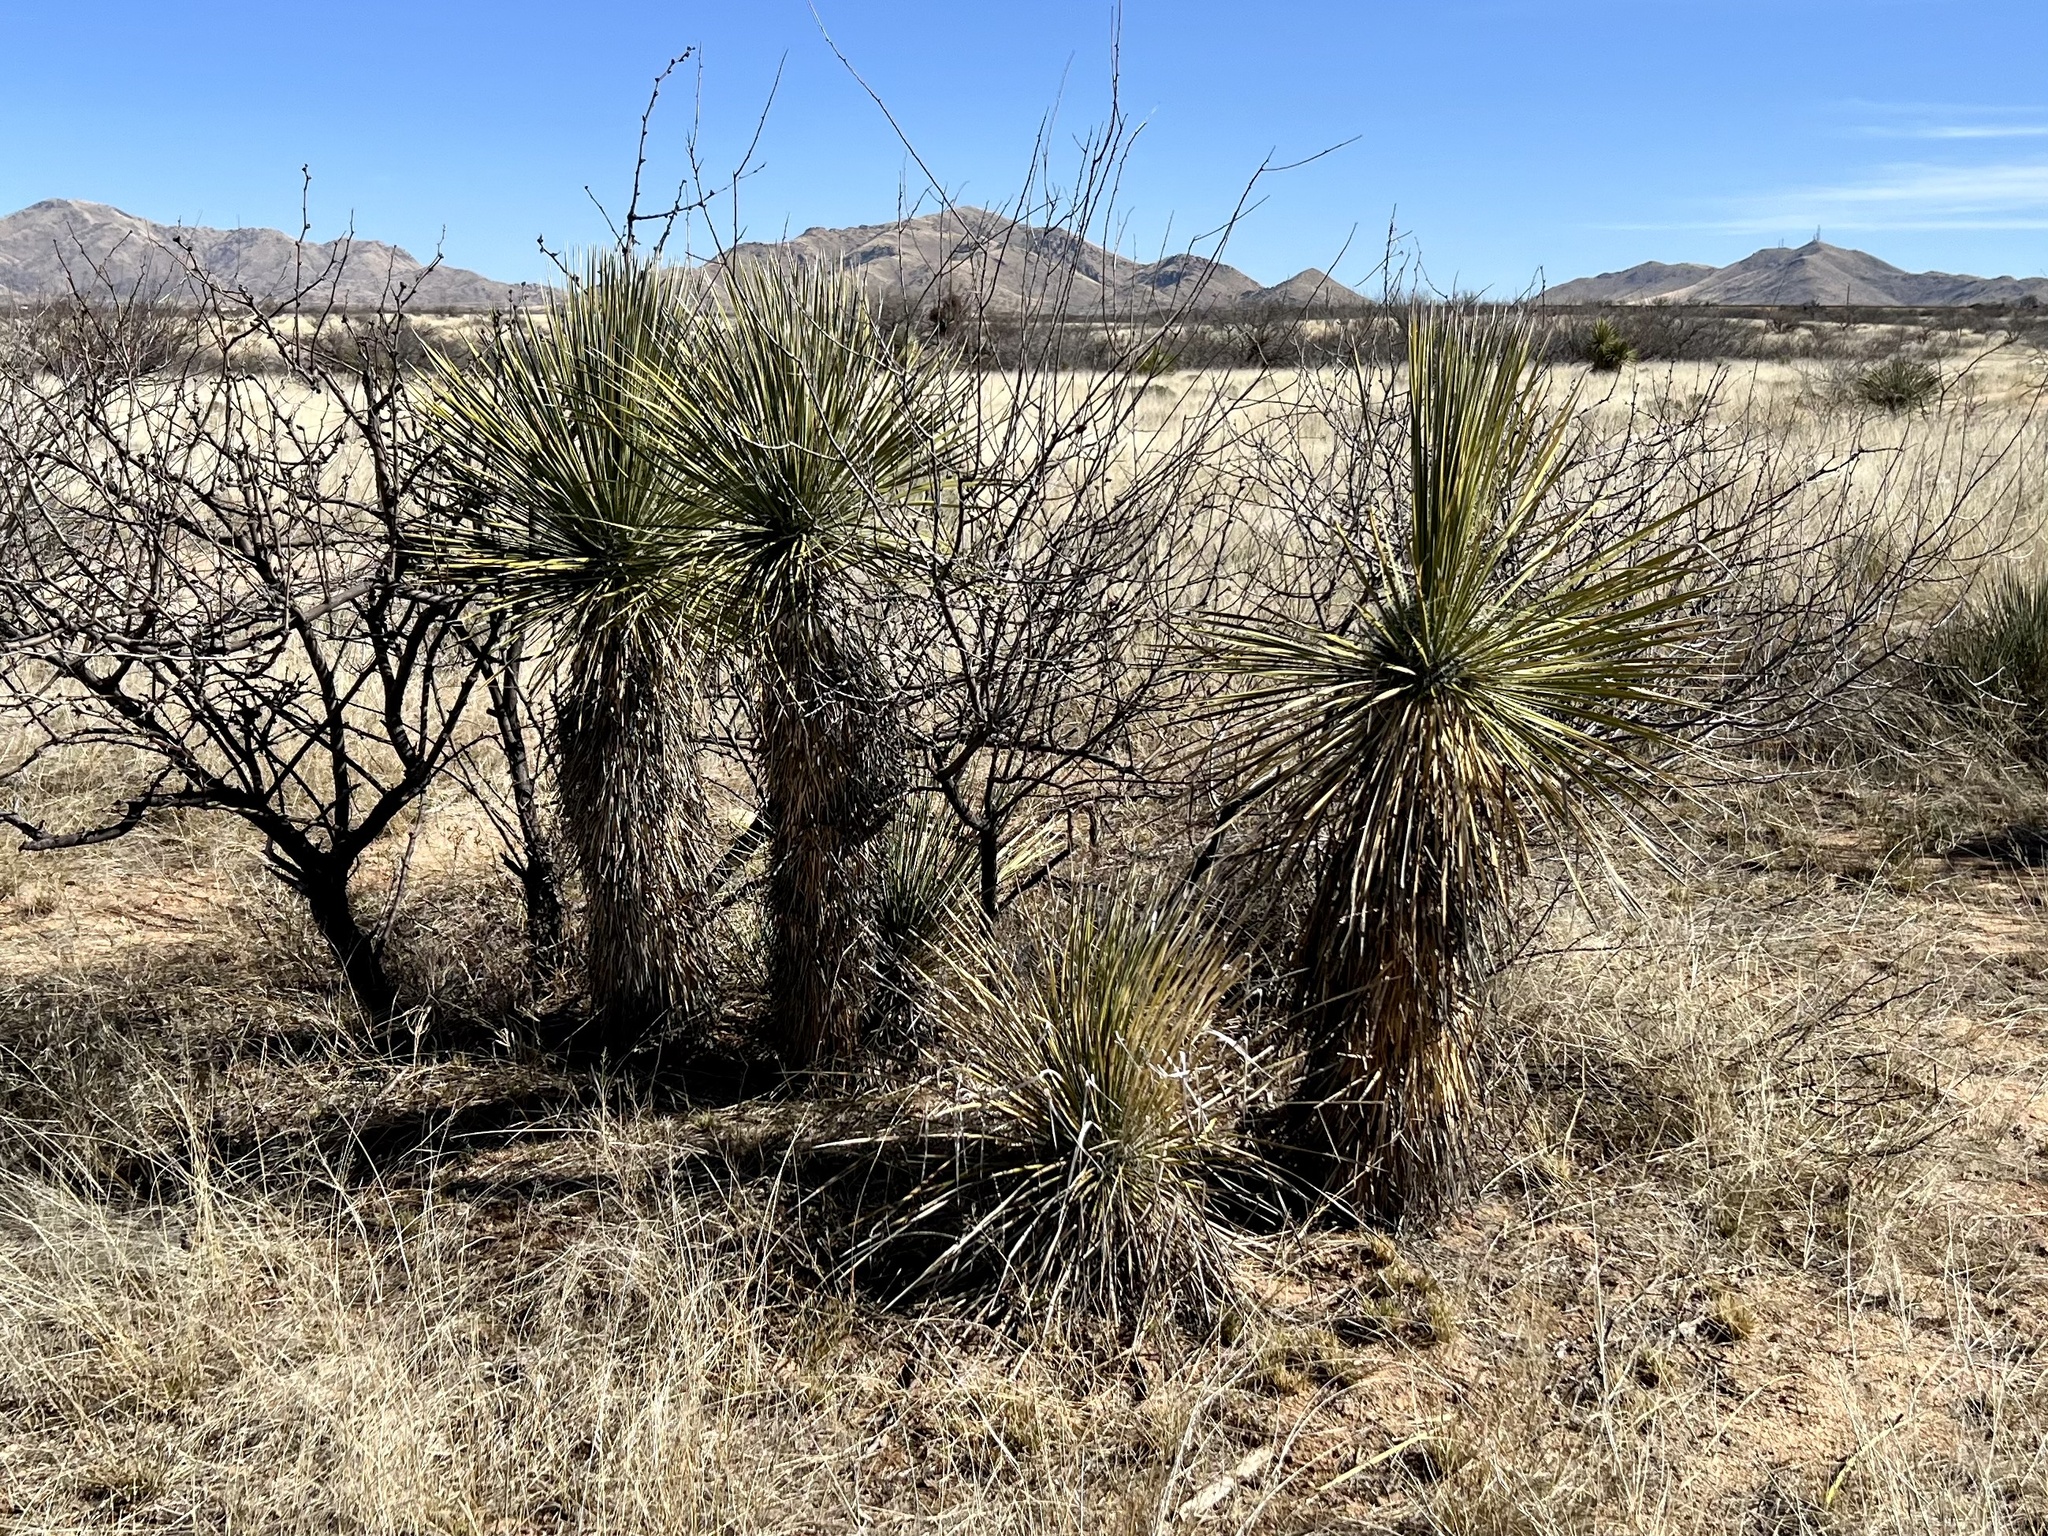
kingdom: Plantae
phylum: Tracheophyta
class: Liliopsida
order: Asparagales
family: Asparagaceae
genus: Yucca
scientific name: Yucca elata
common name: Palmella
